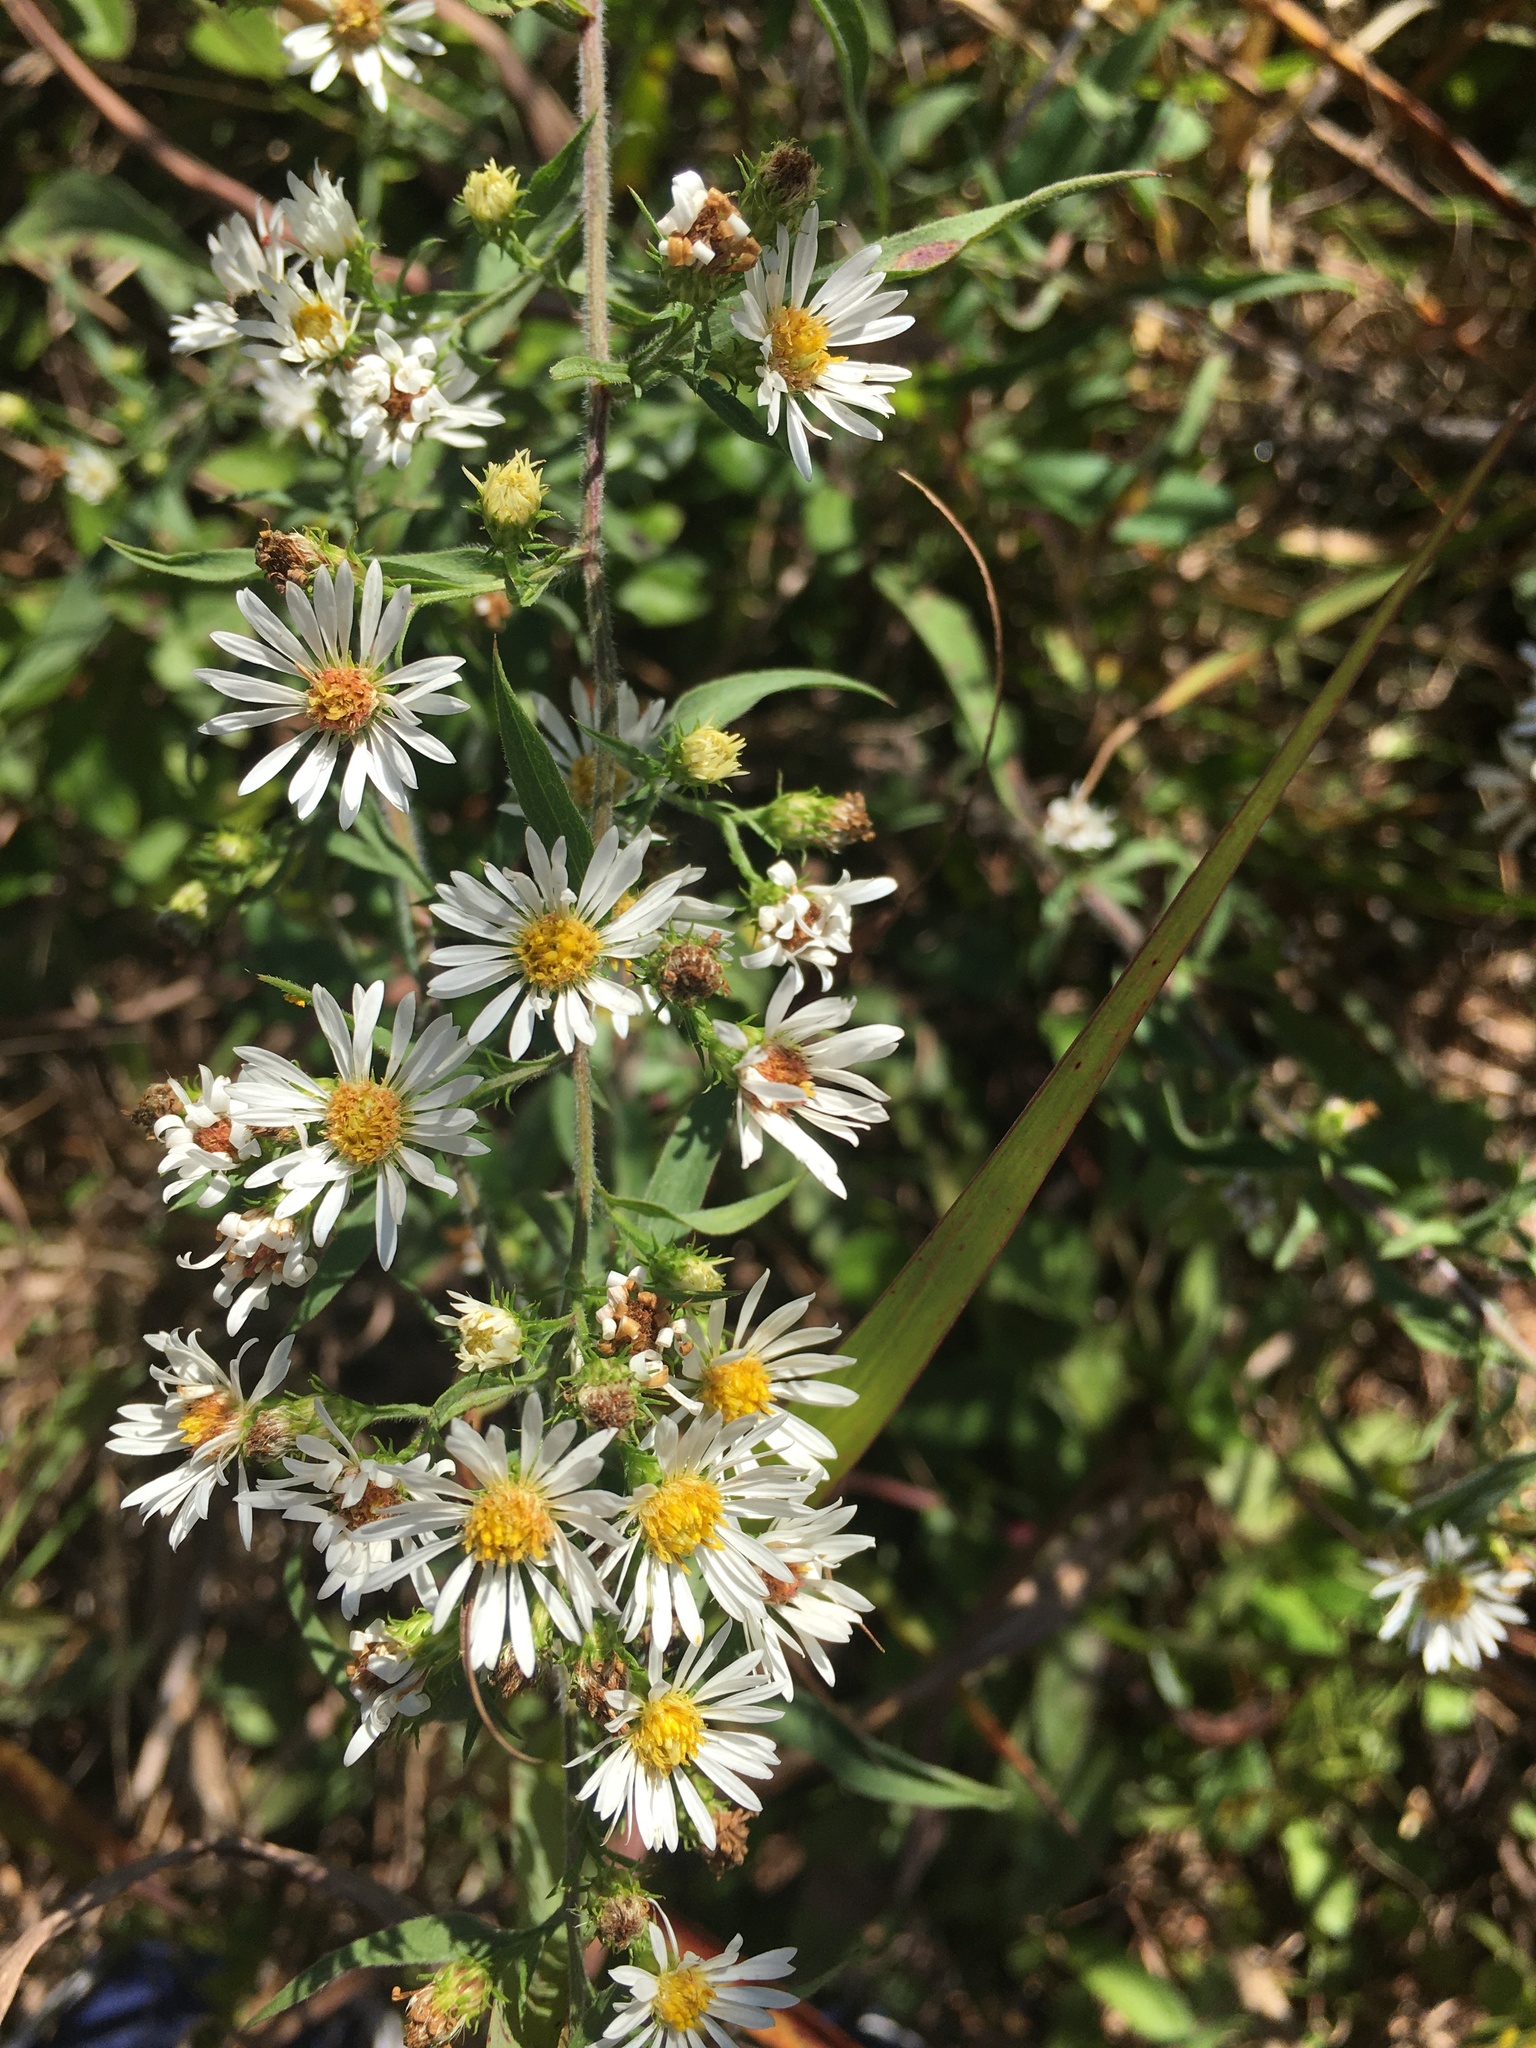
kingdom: Plantae
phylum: Tracheophyta
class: Magnoliopsida
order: Asterales
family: Asteraceae
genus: Symphyotrichum
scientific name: Symphyotrichum pilosum
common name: Awl aster
